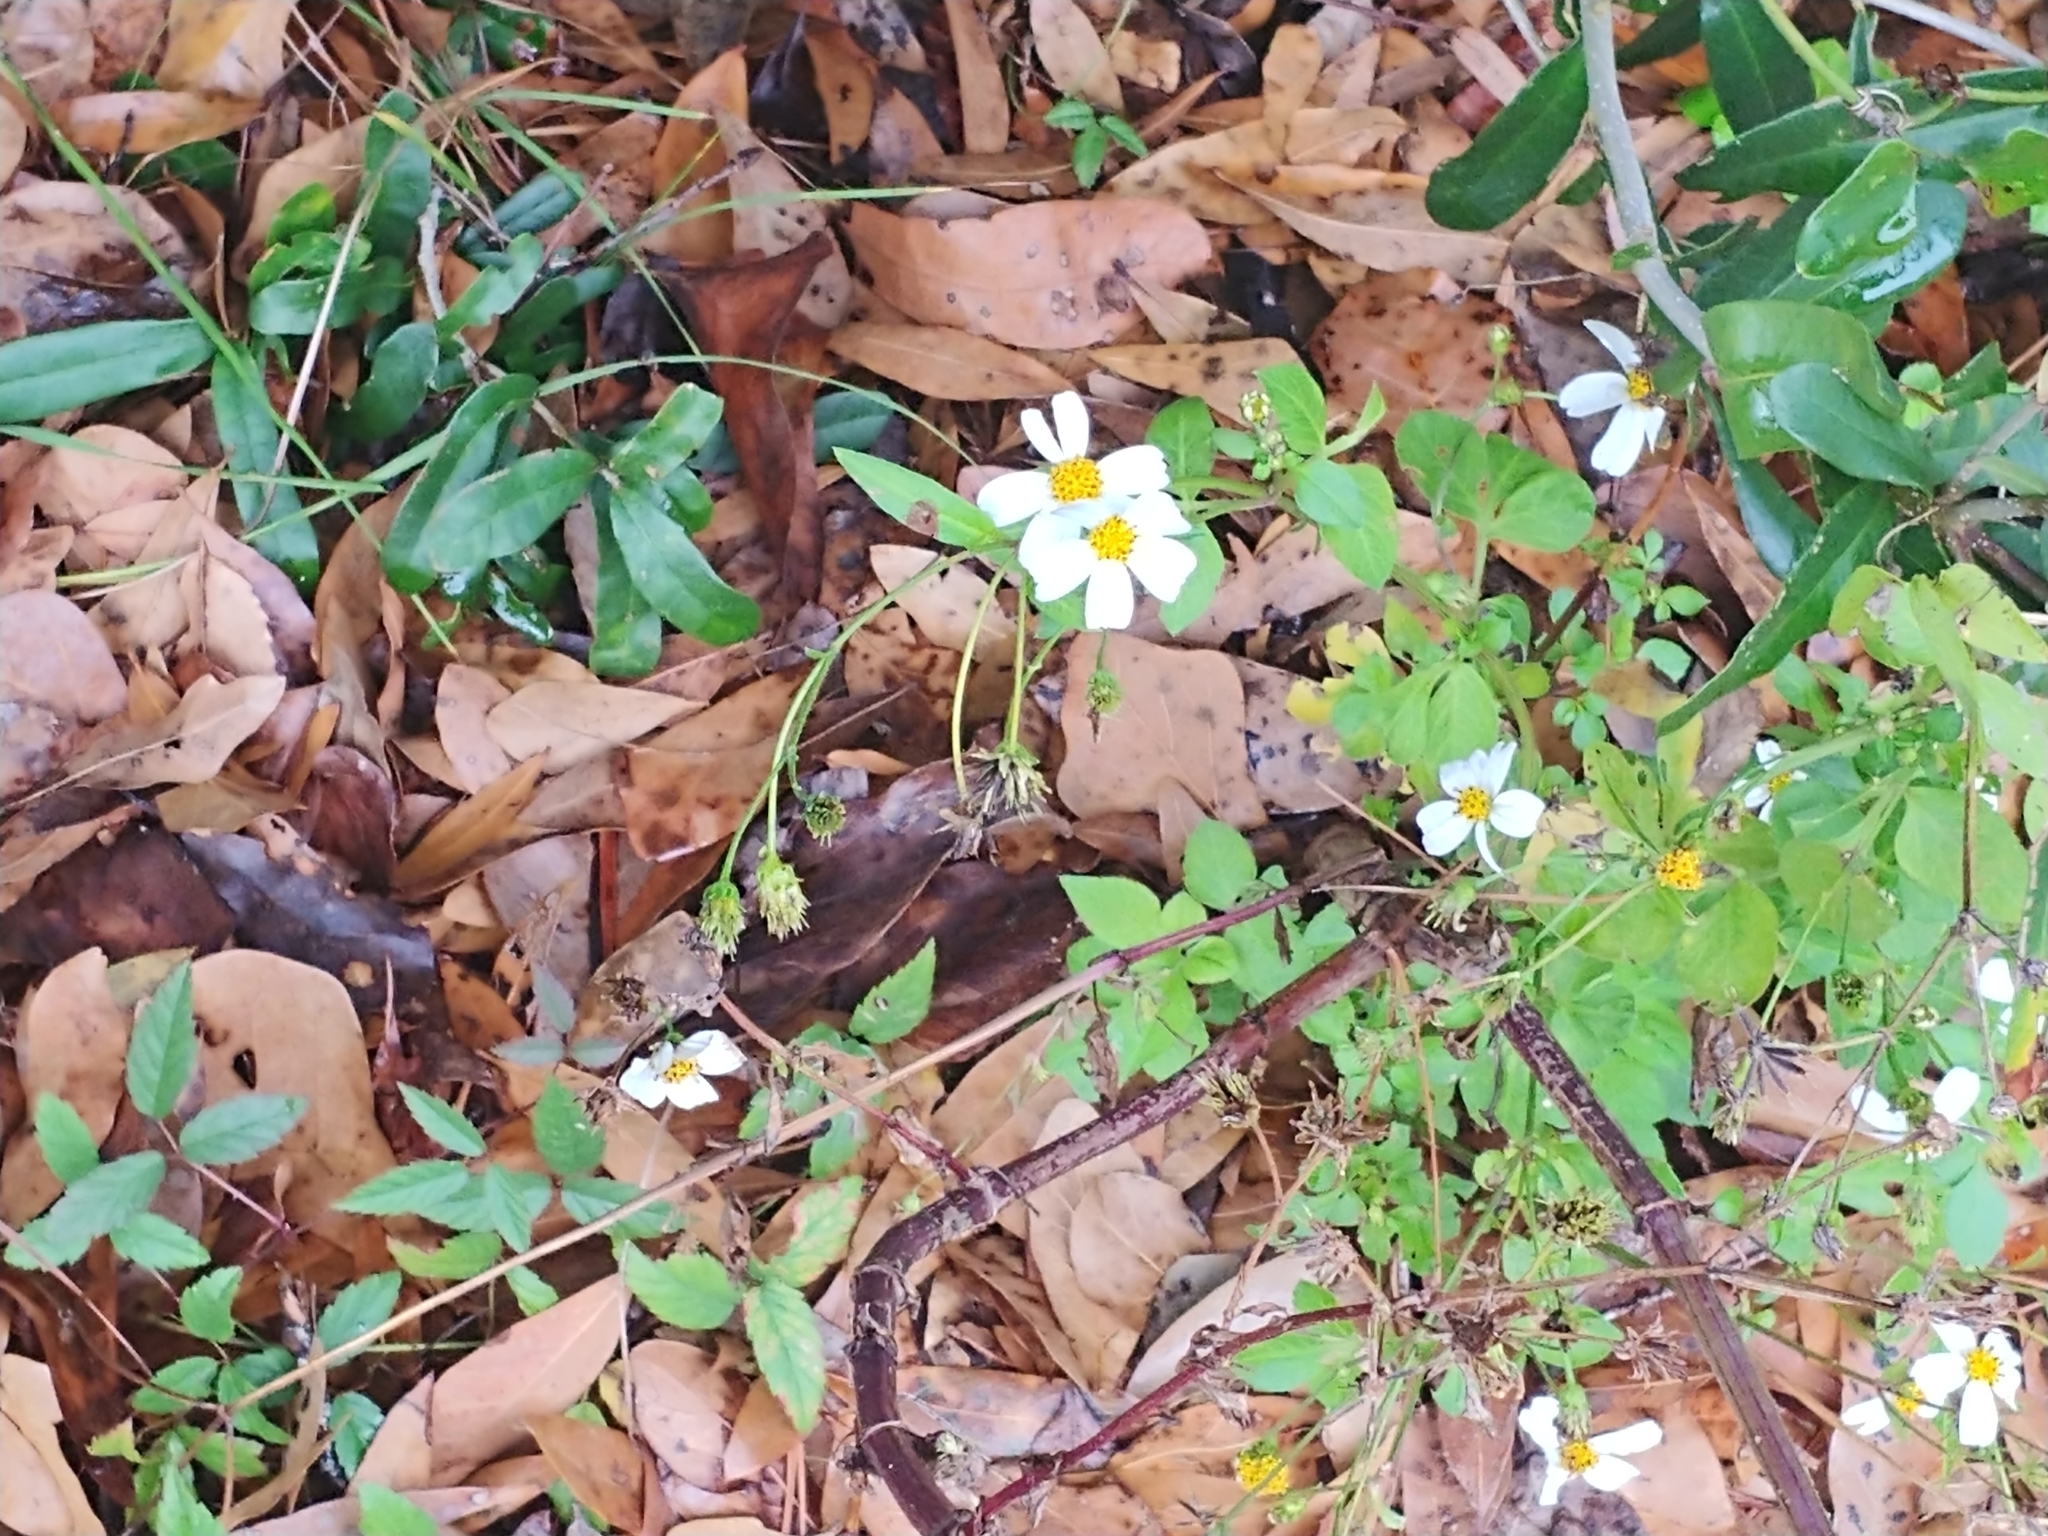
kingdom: Plantae
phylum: Tracheophyta
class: Magnoliopsida
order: Asterales
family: Asteraceae
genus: Bidens
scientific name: Bidens alba
